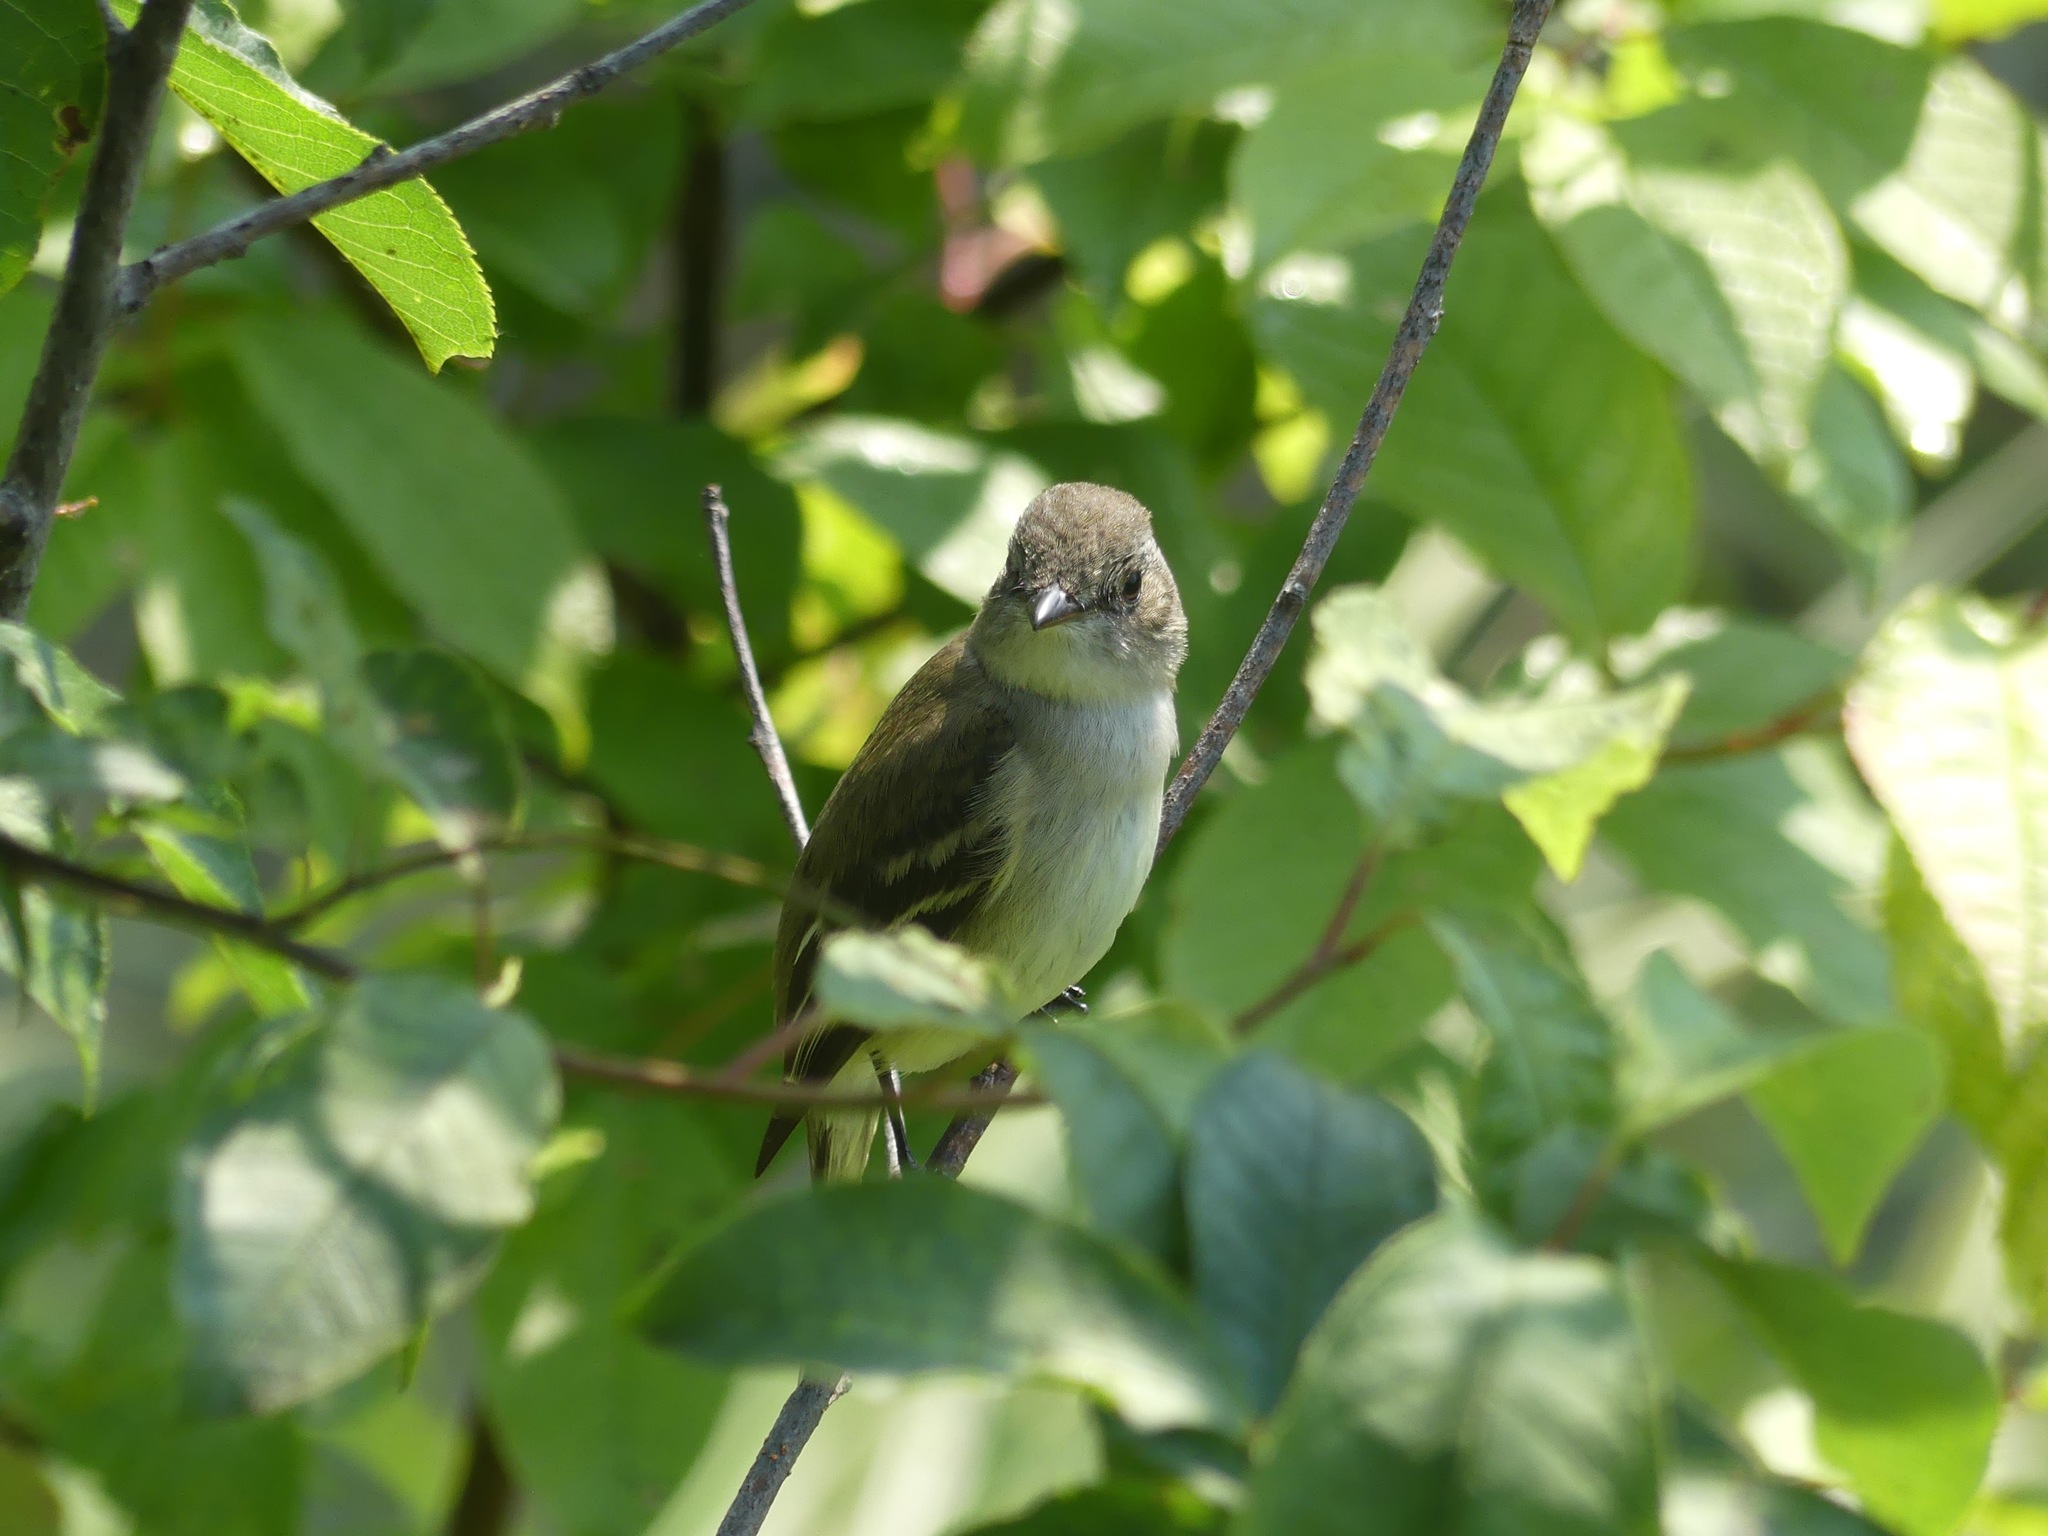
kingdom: Animalia
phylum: Chordata
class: Aves
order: Passeriformes
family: Tyrannidae
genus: Empidonax
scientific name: Empidonax alnorum
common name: Alder flycatcher
